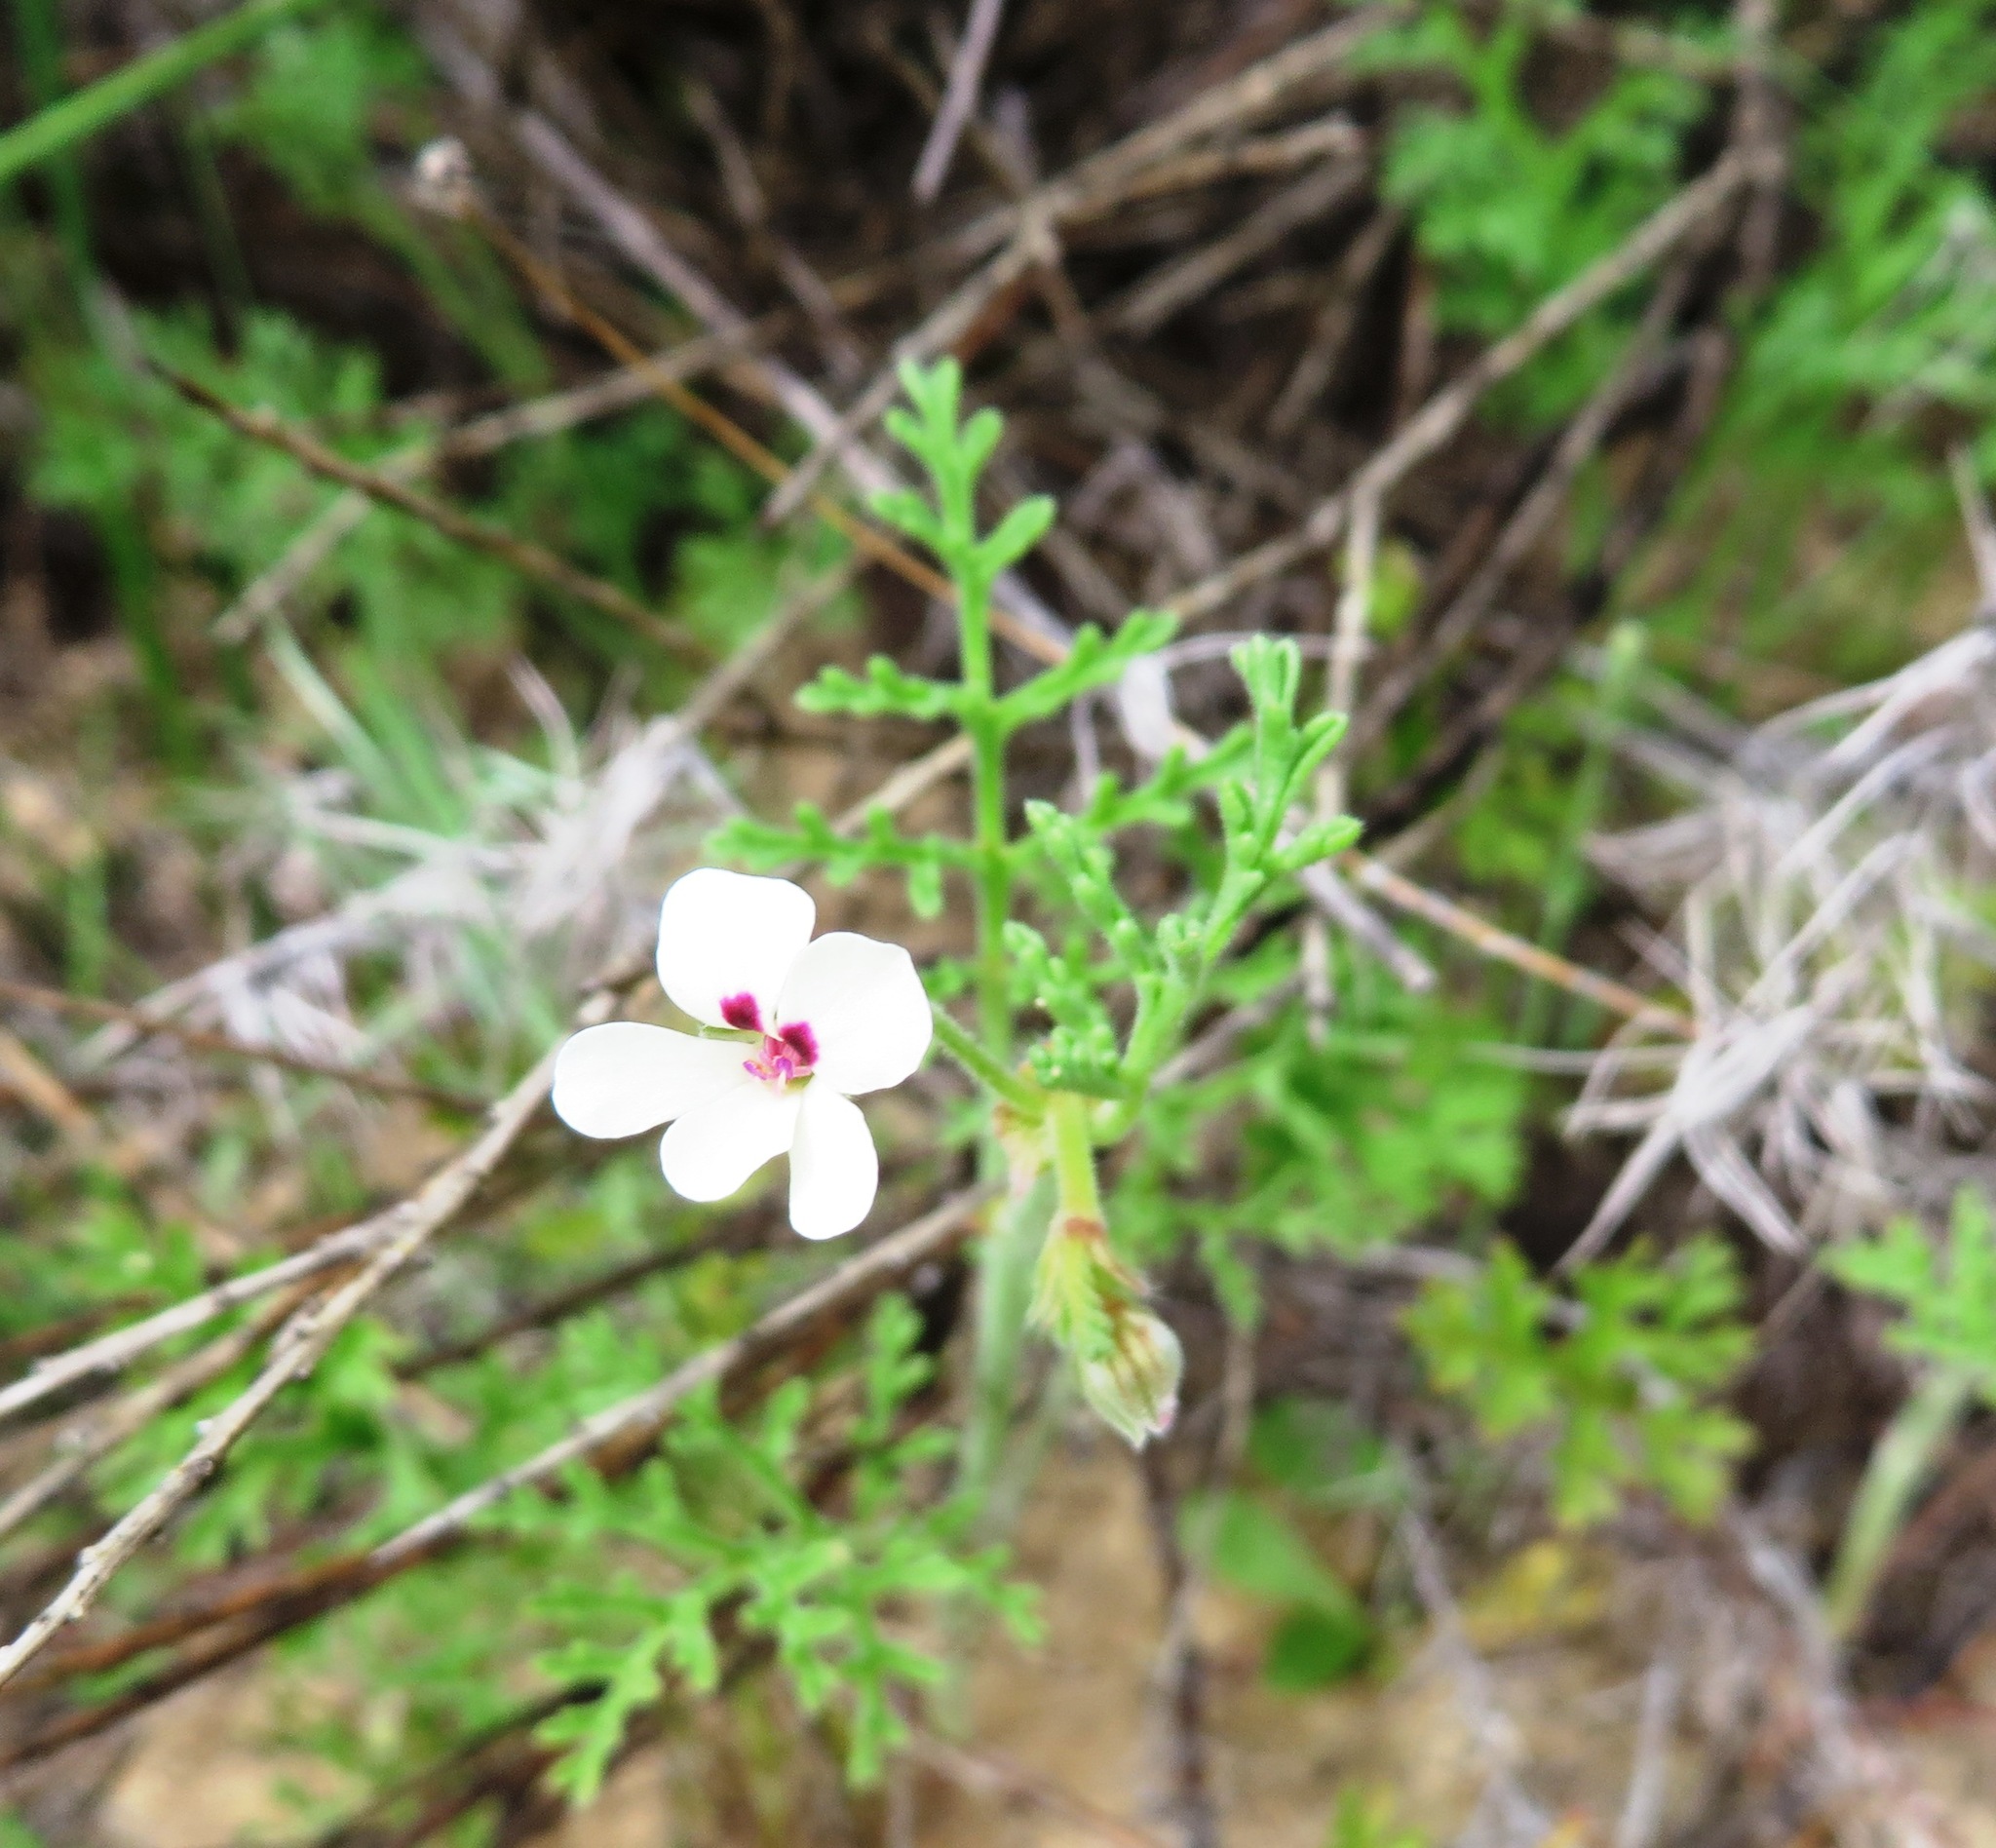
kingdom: Plantae
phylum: Tracheophyta
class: Magnoliopsida
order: Geraniales
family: Geraniaceae
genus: Pelargonium
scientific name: Pelargonium senecioides
